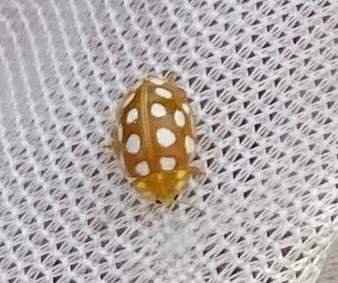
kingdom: Animalia
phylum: Arthropoda
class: Insecta
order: Coleoptera
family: Coccinellidae
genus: Halyzia
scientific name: Halyzia sedecimguttata
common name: Orange ladybird
